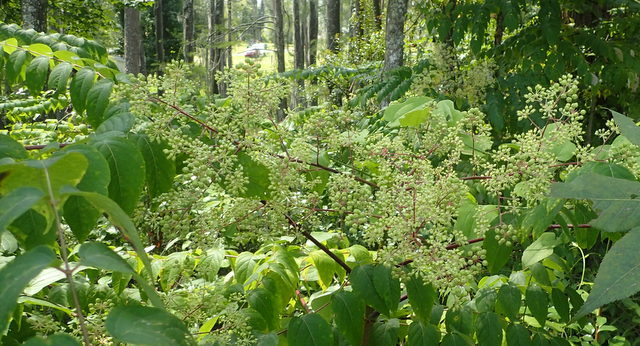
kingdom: Plantae
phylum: Tracheophyta
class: Magnoliopsida
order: Apiales
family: Araliaceae
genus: Aralia
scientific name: Aralia spinosa
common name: Hercules'-club
